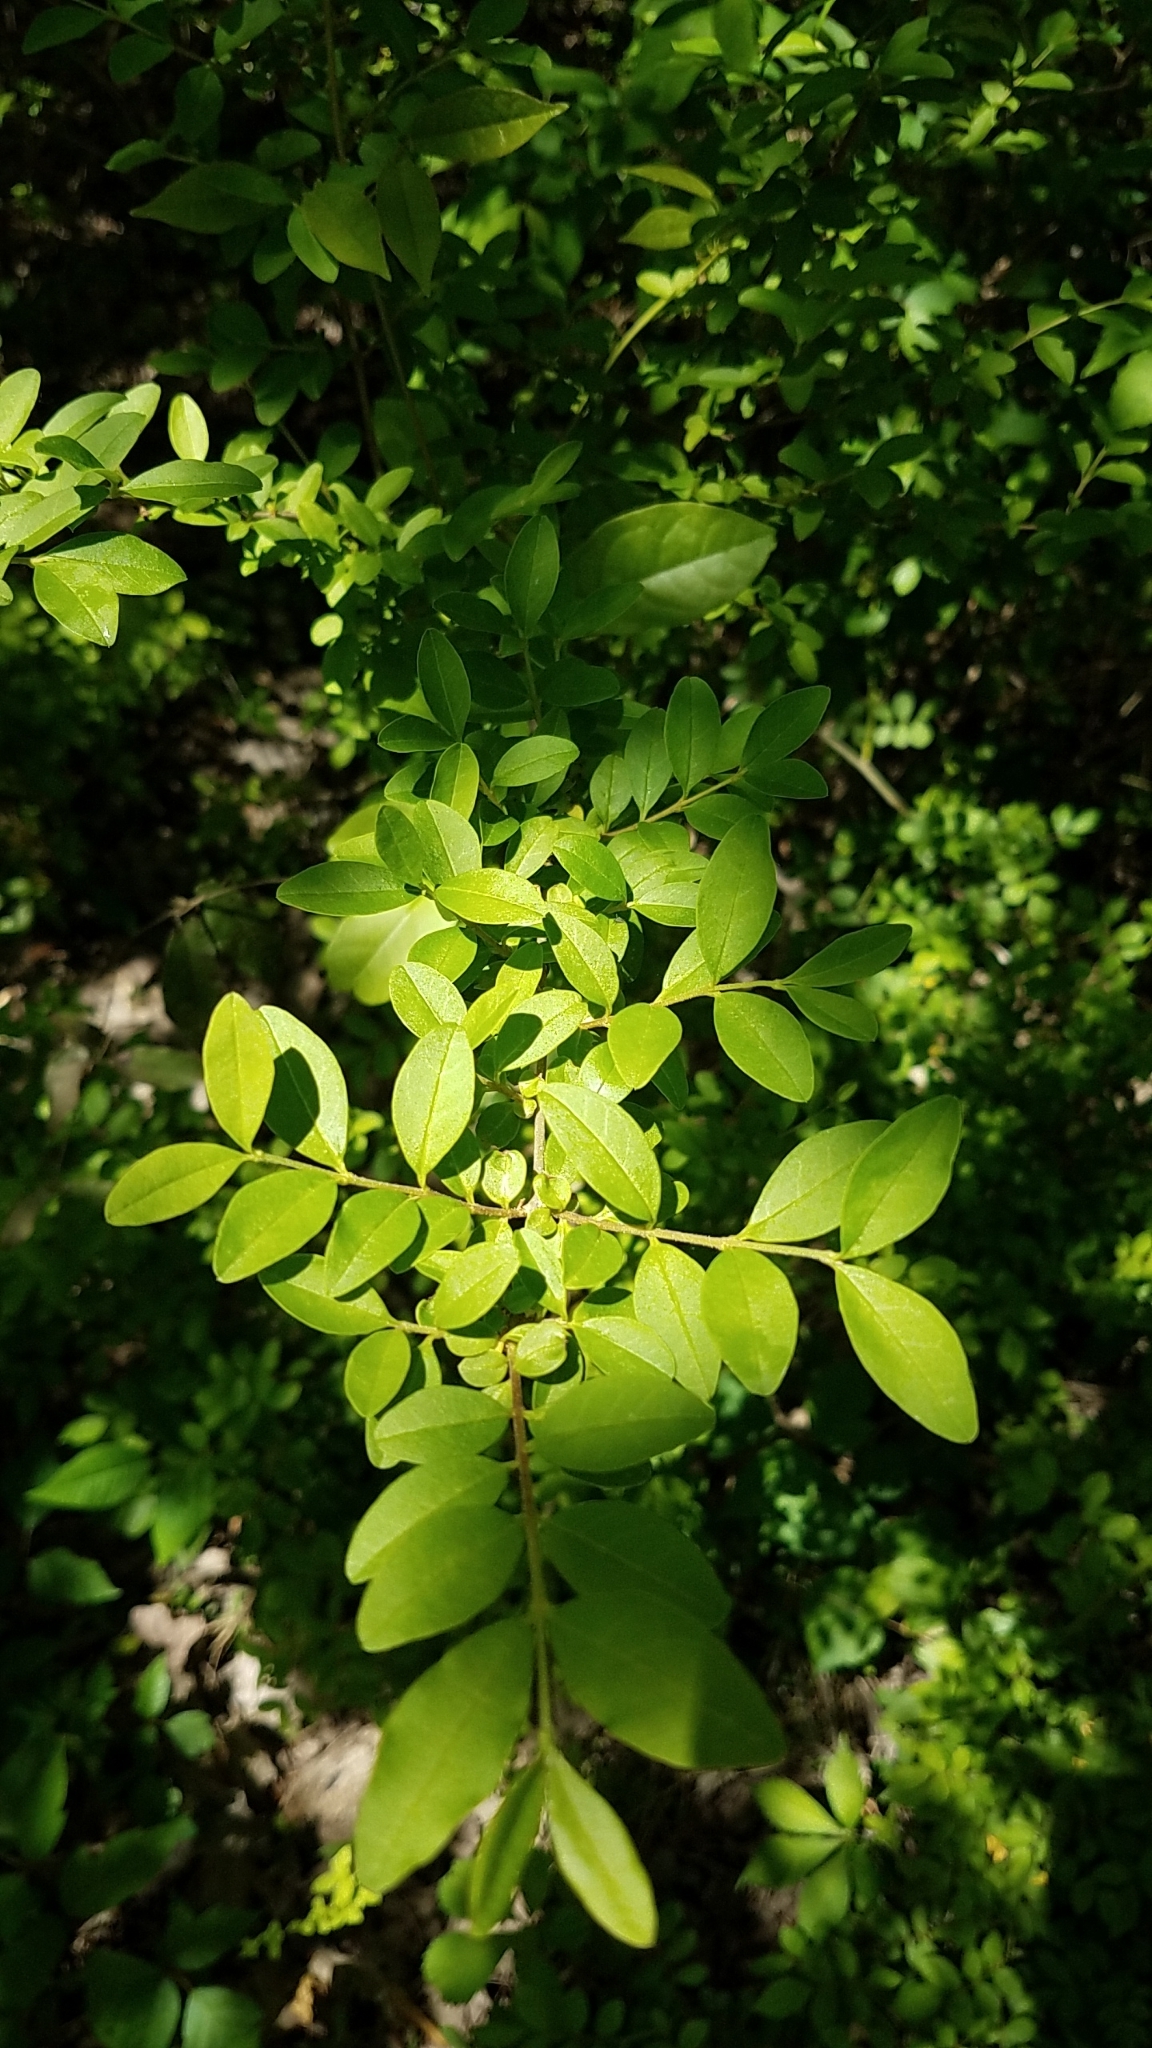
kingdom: Plantae
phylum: Tracheophyta
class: Magnoliopsida
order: Lamiales
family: Oleaceae
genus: Ligustrum
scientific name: Ligustrum sinense
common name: Chinese privet
